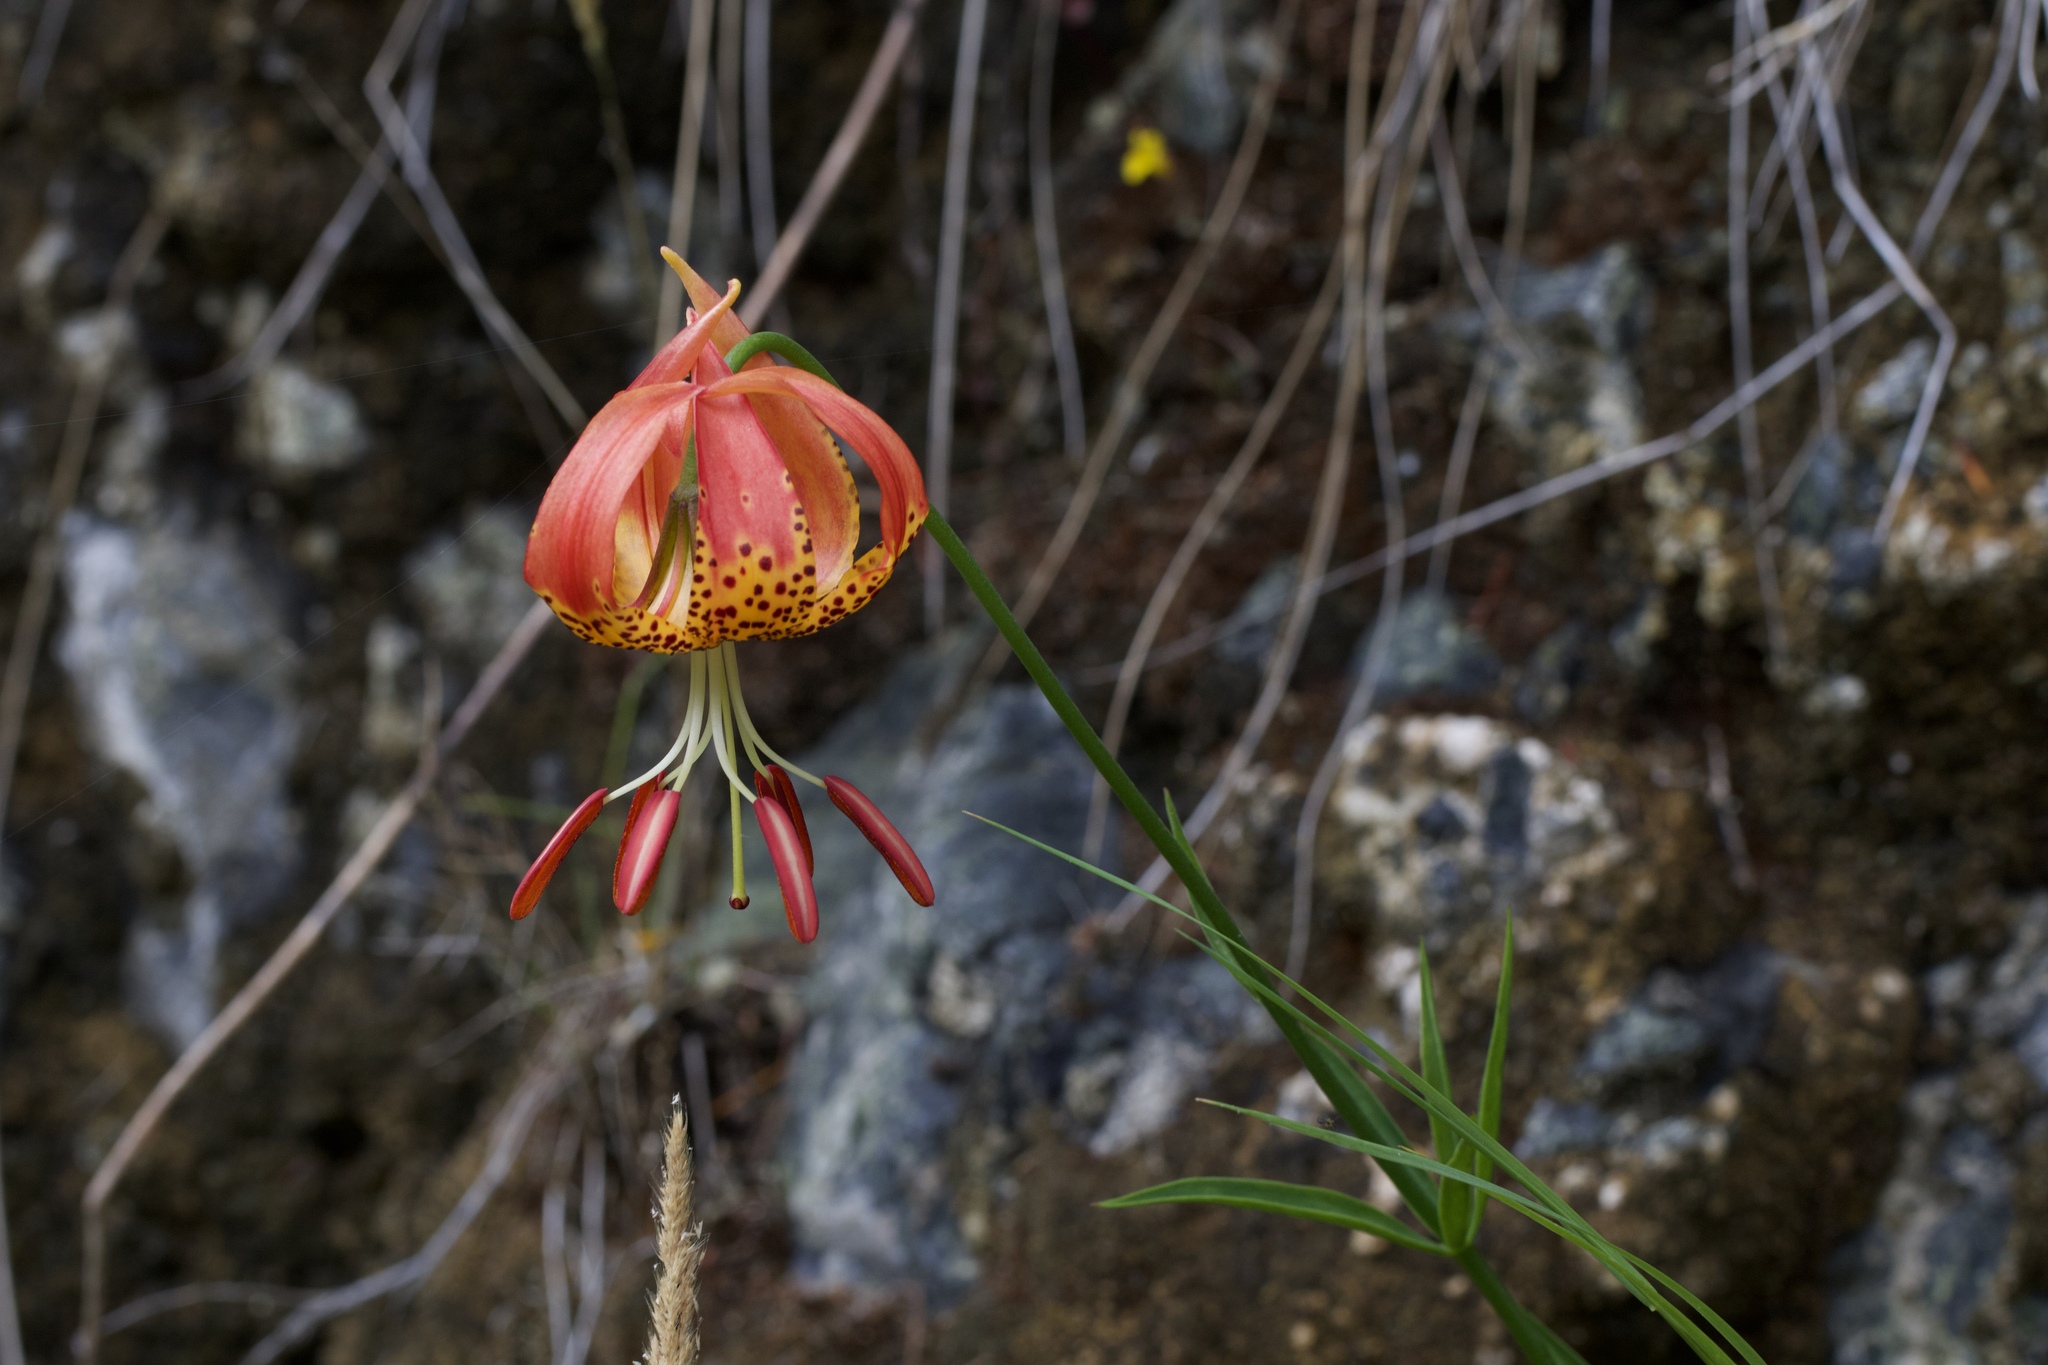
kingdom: Plantae
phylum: Tracheophyta
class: Liliopsida
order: Liliales
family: Liliaceae
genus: Lilium
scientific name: Lilium pardalinum
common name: Panther lily
